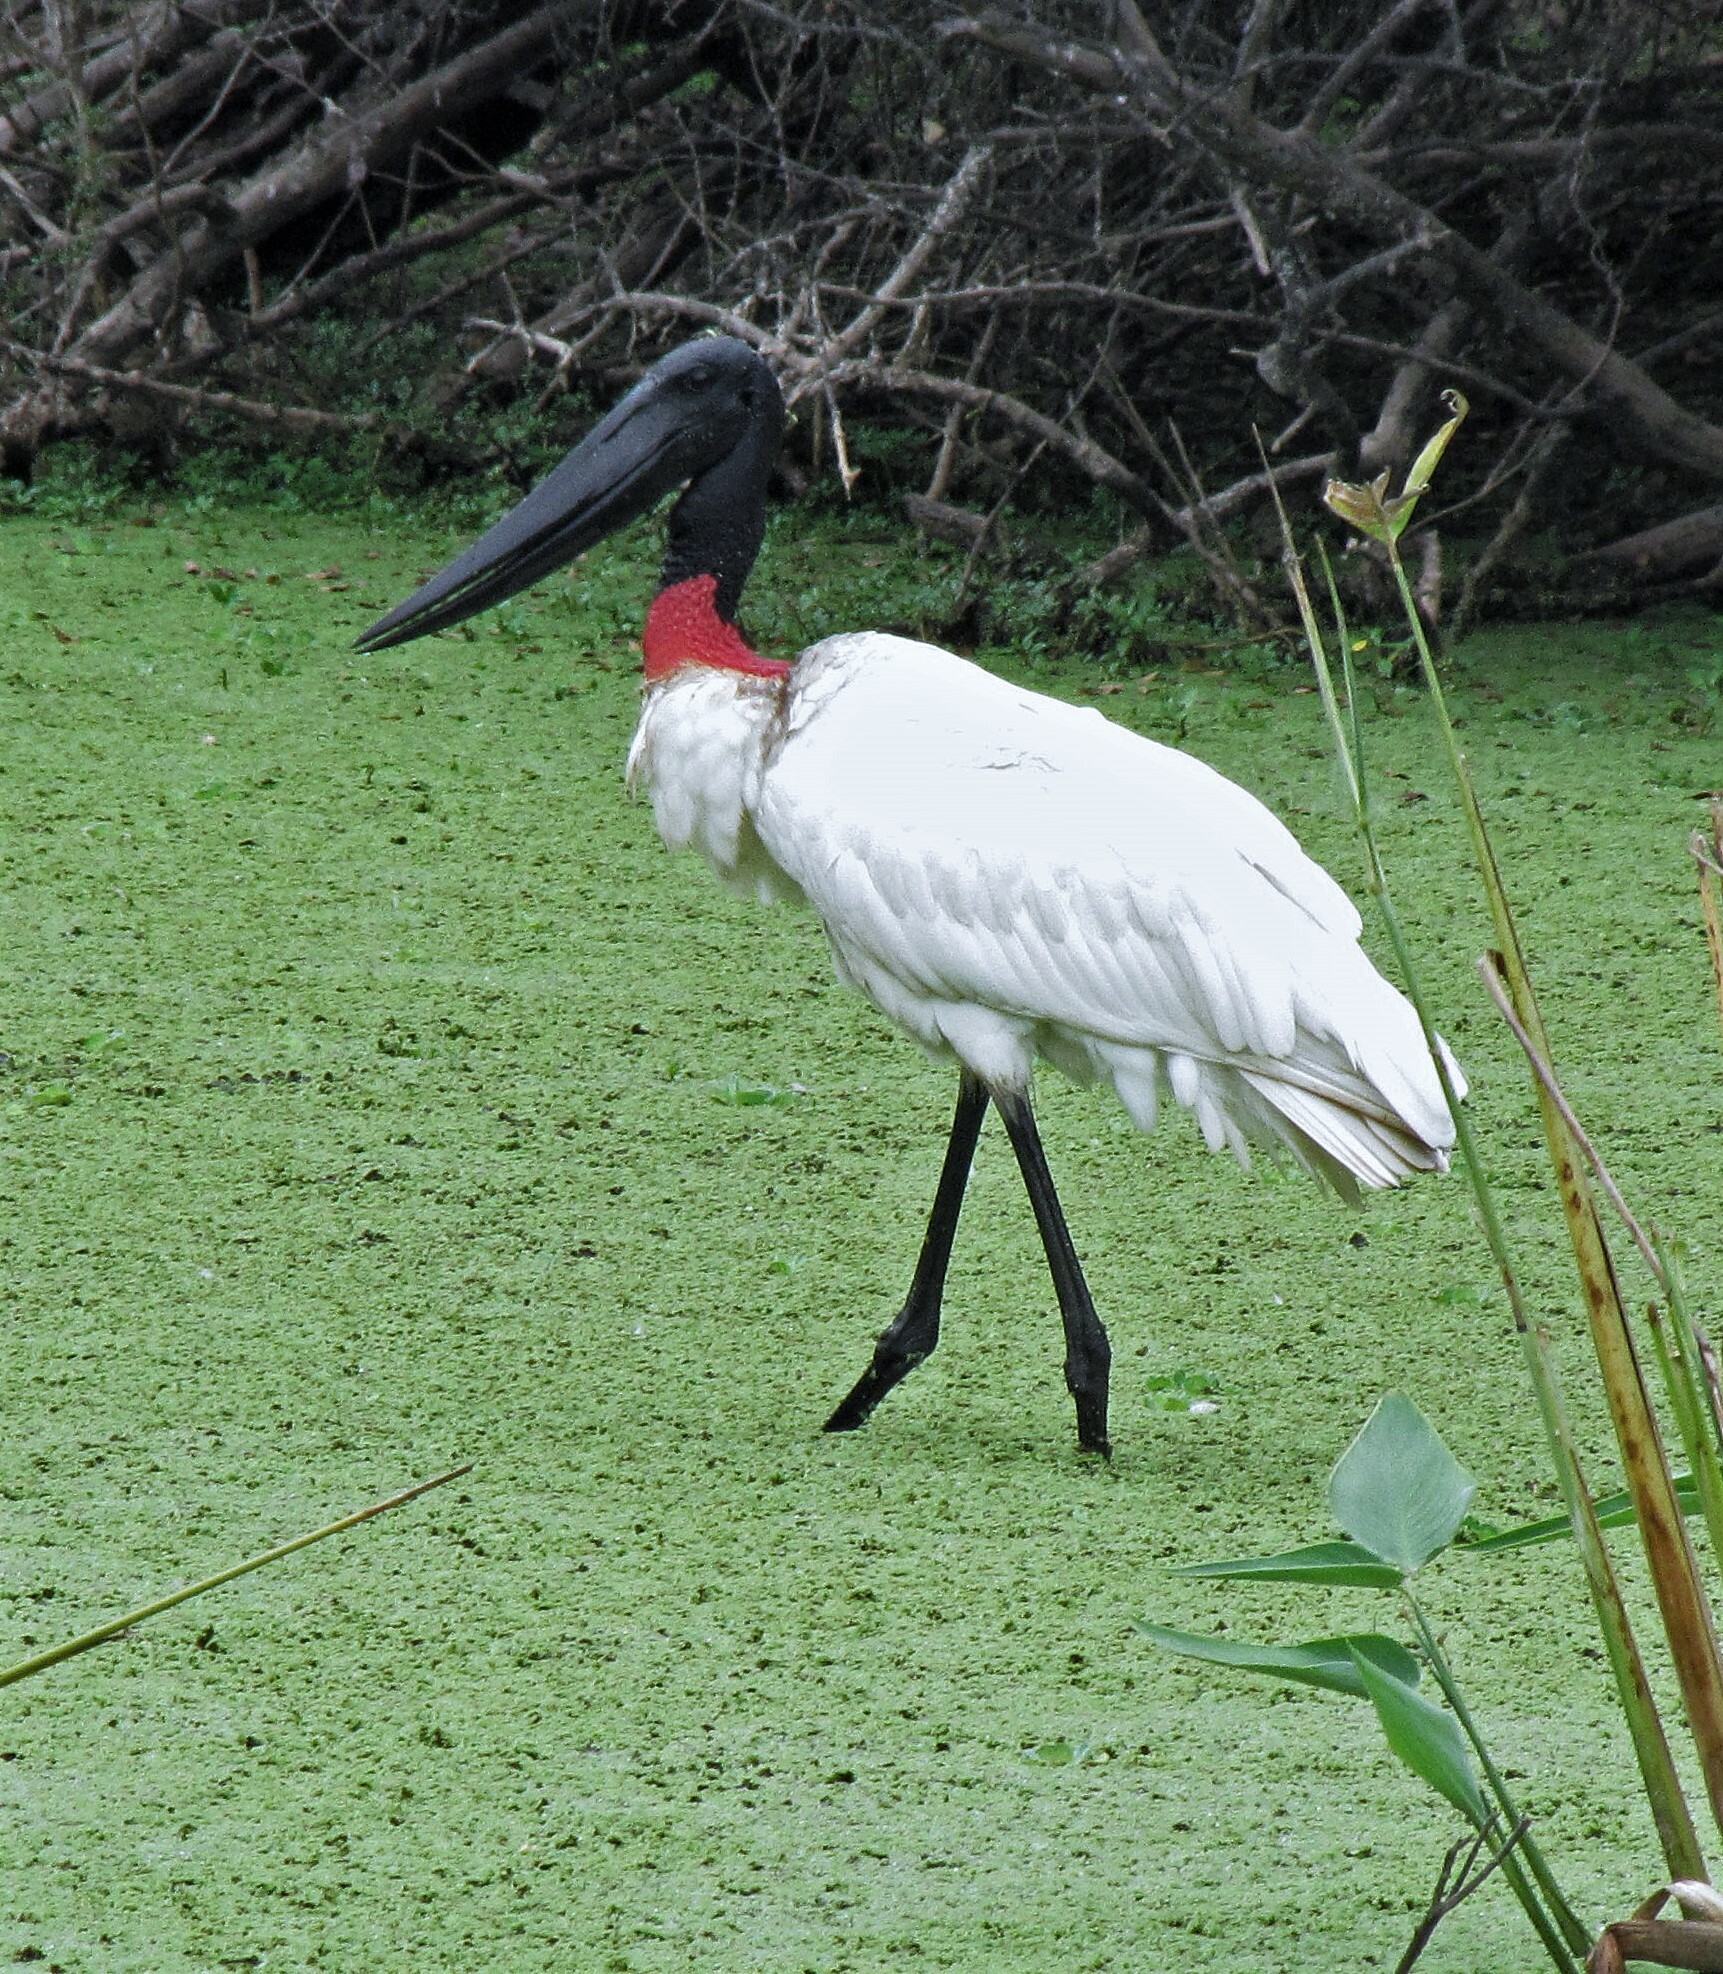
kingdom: Animalia
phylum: Chordata
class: Aves
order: Ciconiiformes
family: Ciconiidae
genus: Jabiru
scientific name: Jabiru mycteria
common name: Jabiru
